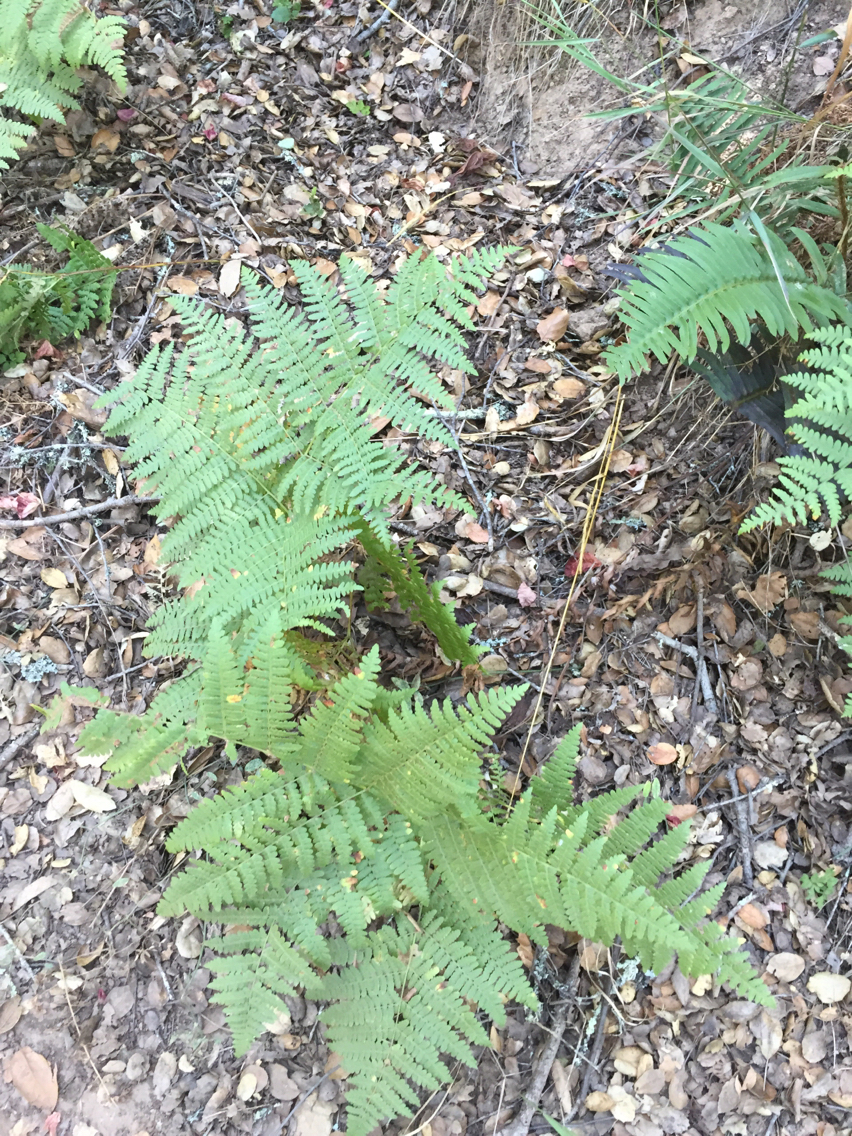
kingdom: Plantae
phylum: Tracheophyta
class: Polypodiopsida
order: Polypodiales
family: Dennstaedtiaceae
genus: Pteridium
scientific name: Pteridium aquilinum
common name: Bracken
